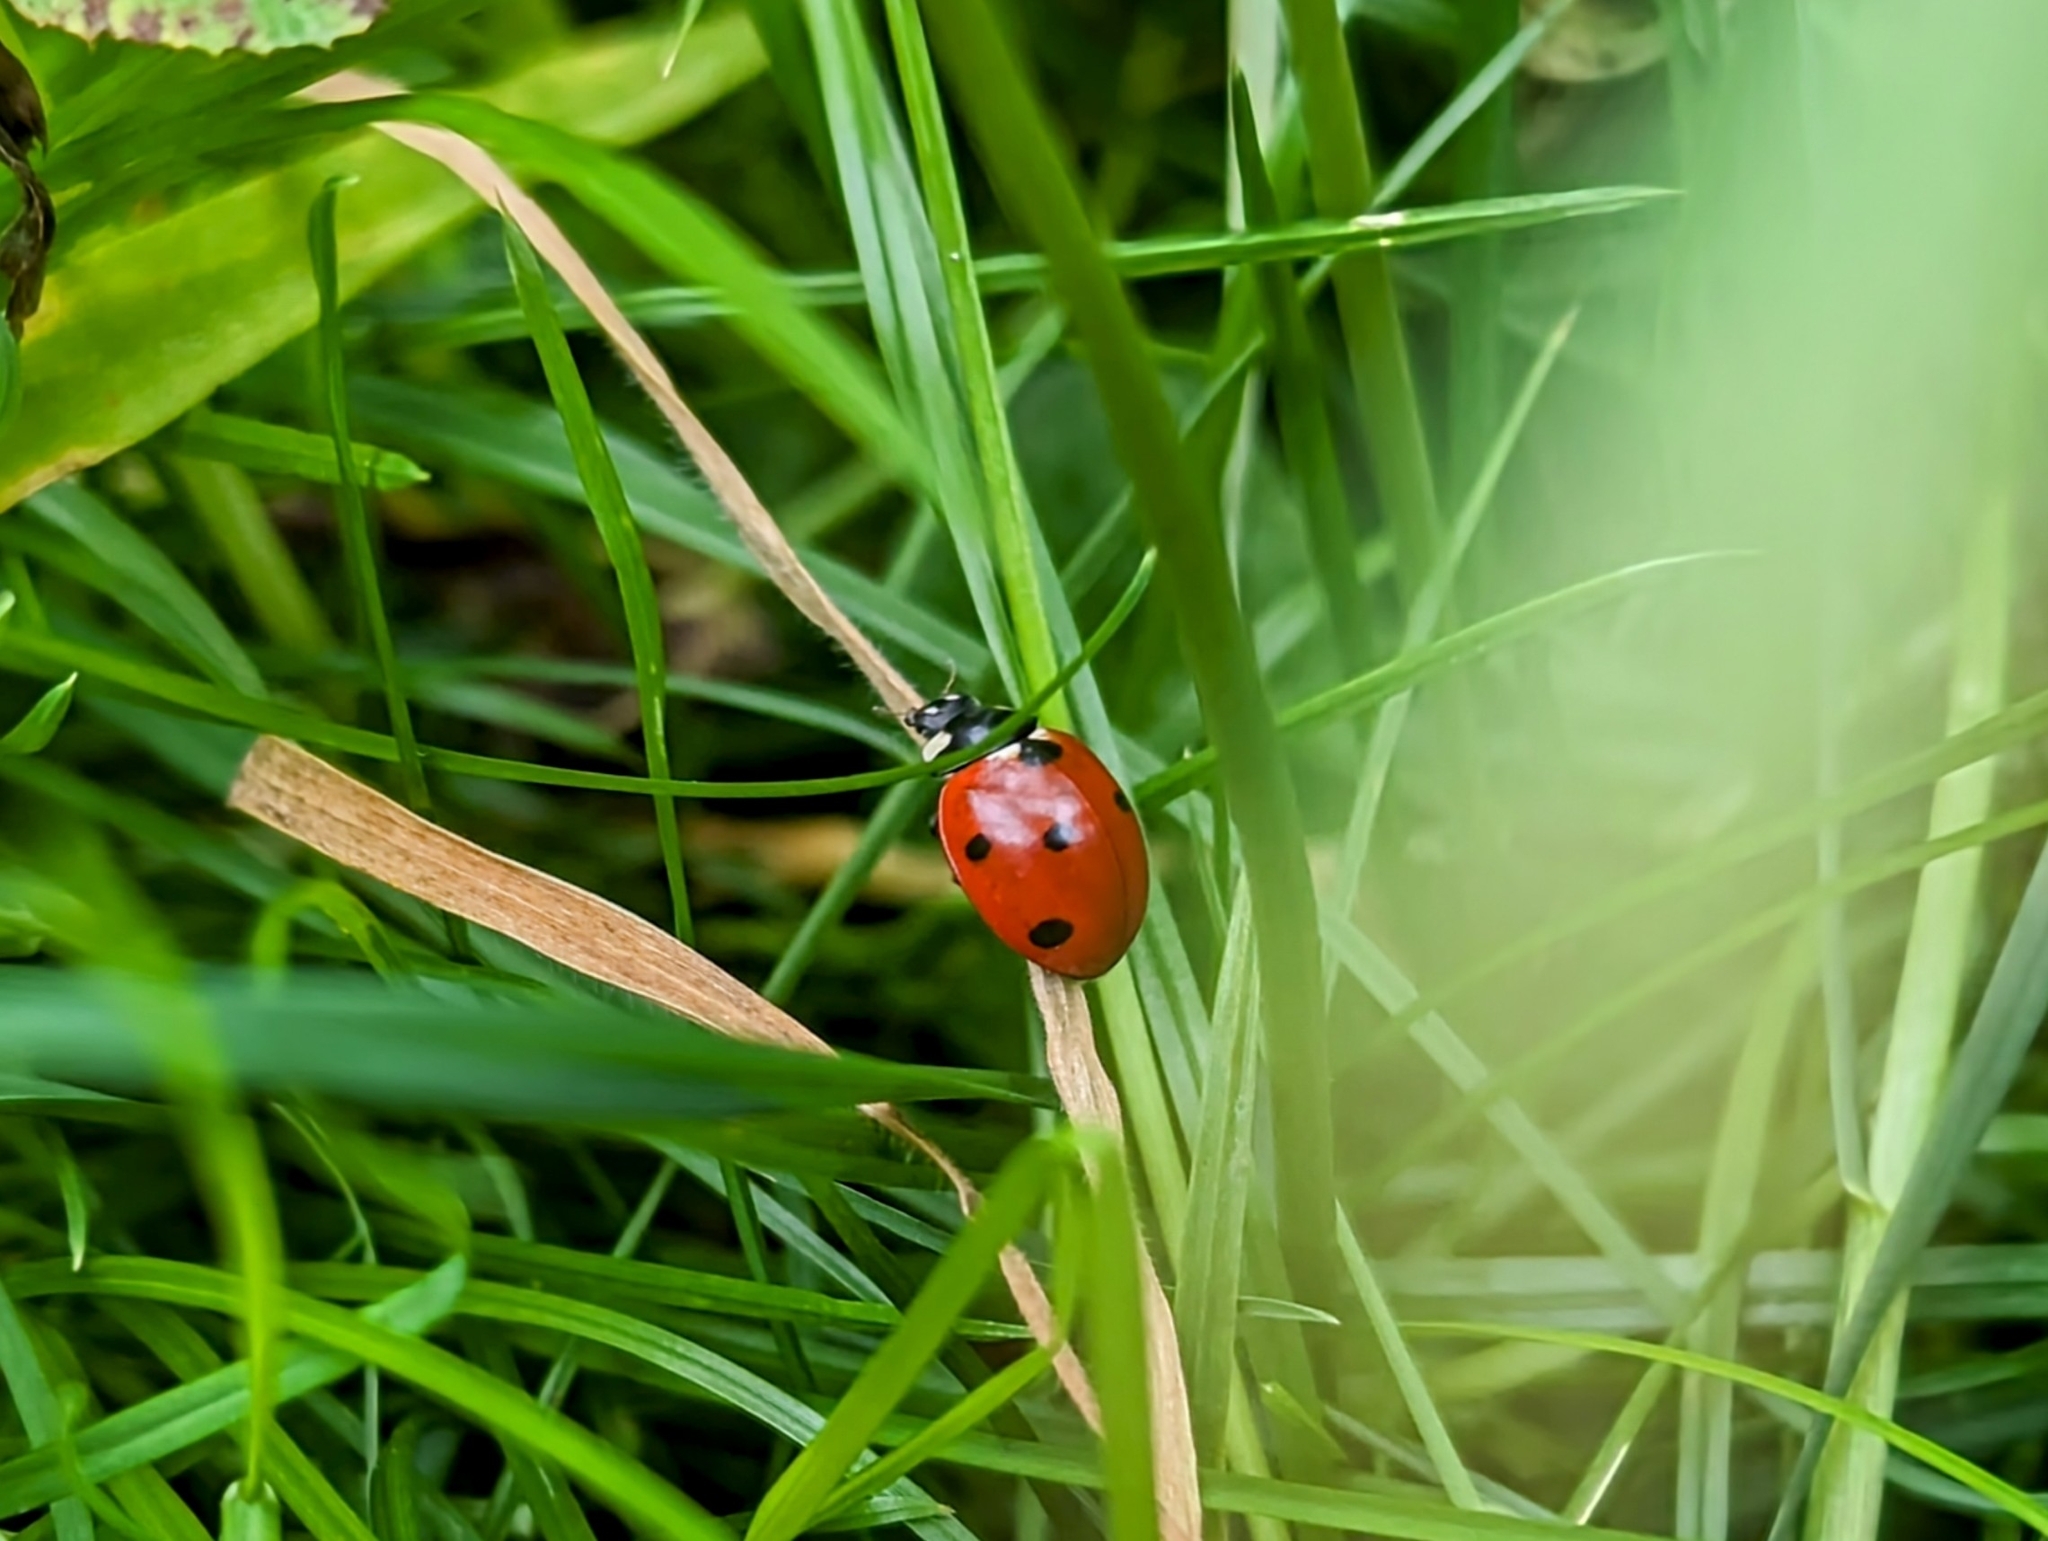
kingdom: Animalia
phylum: Arthropoda
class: Insecta
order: Coleoptera
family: Coccinellidae
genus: Coccinella
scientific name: Coccinella septempunctata
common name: Sevenspotted lady beetle
